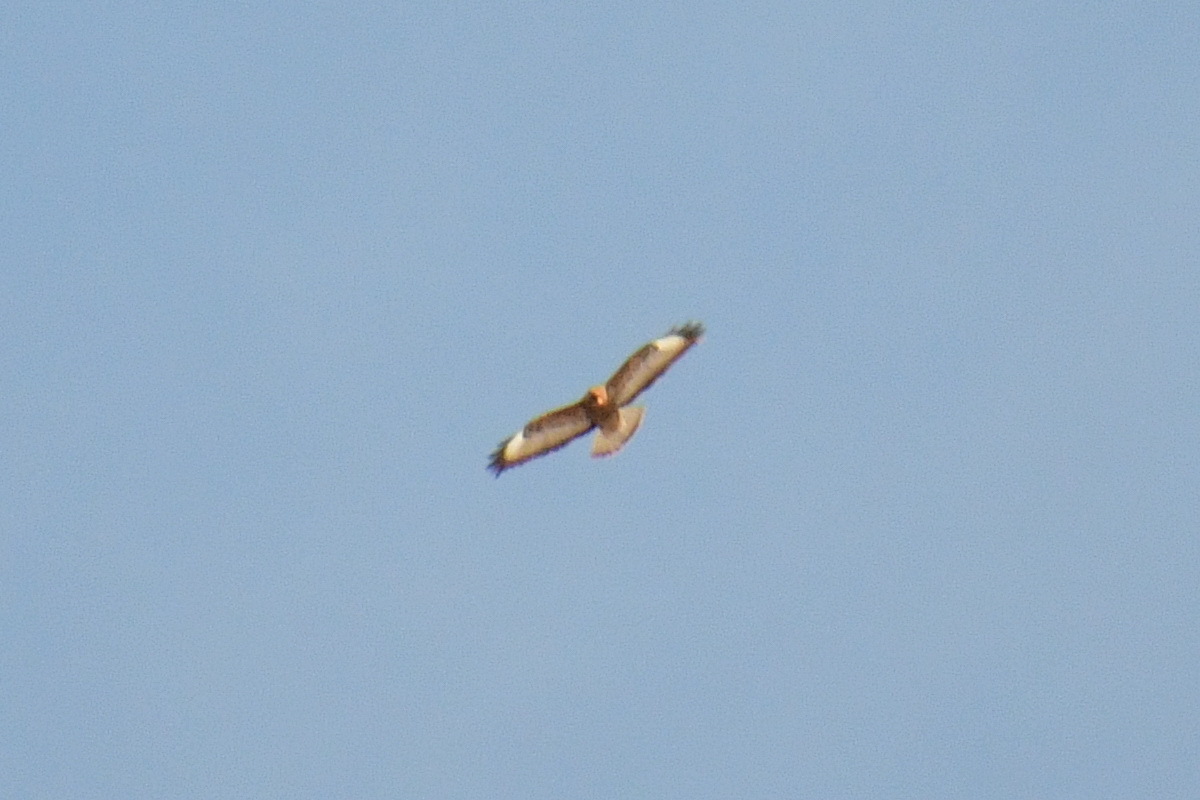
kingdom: Animalia
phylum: Chordata
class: Aves
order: Accipitriformes
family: Accipitridae
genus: Buteo
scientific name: Buteo buteo
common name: Common buzzard
